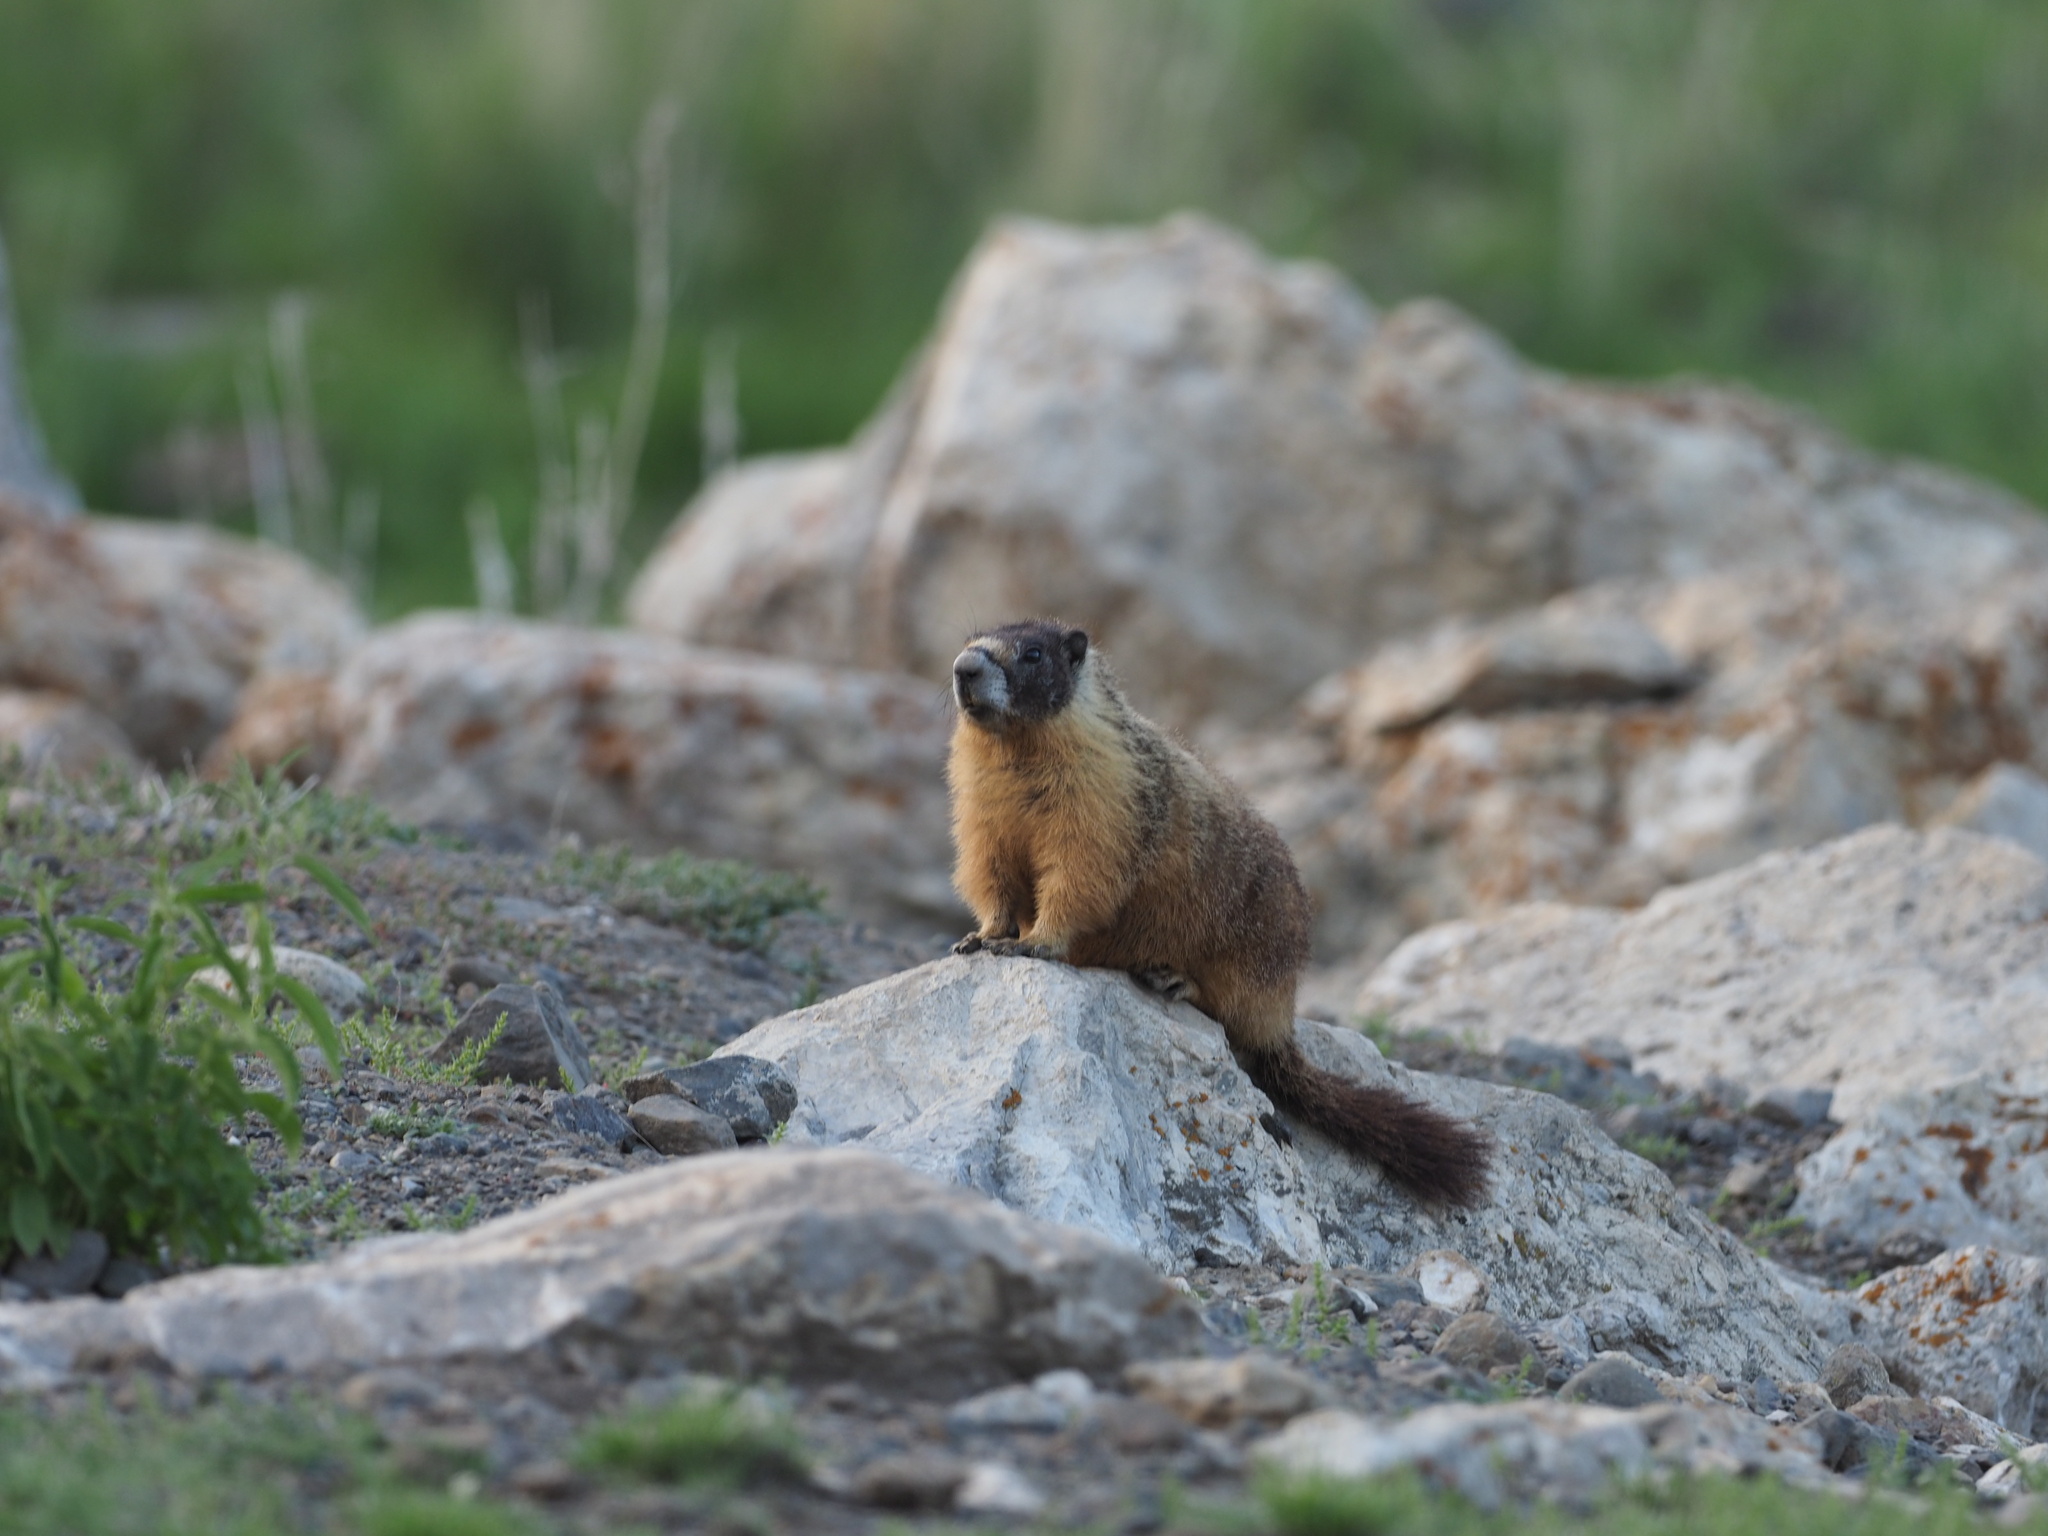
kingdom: Animalia
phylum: Chordata
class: Mammalia
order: Rodentia
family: Sciuridae
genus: Marmota
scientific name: Marmota flaviventris
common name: Yellow-bellied marmot
